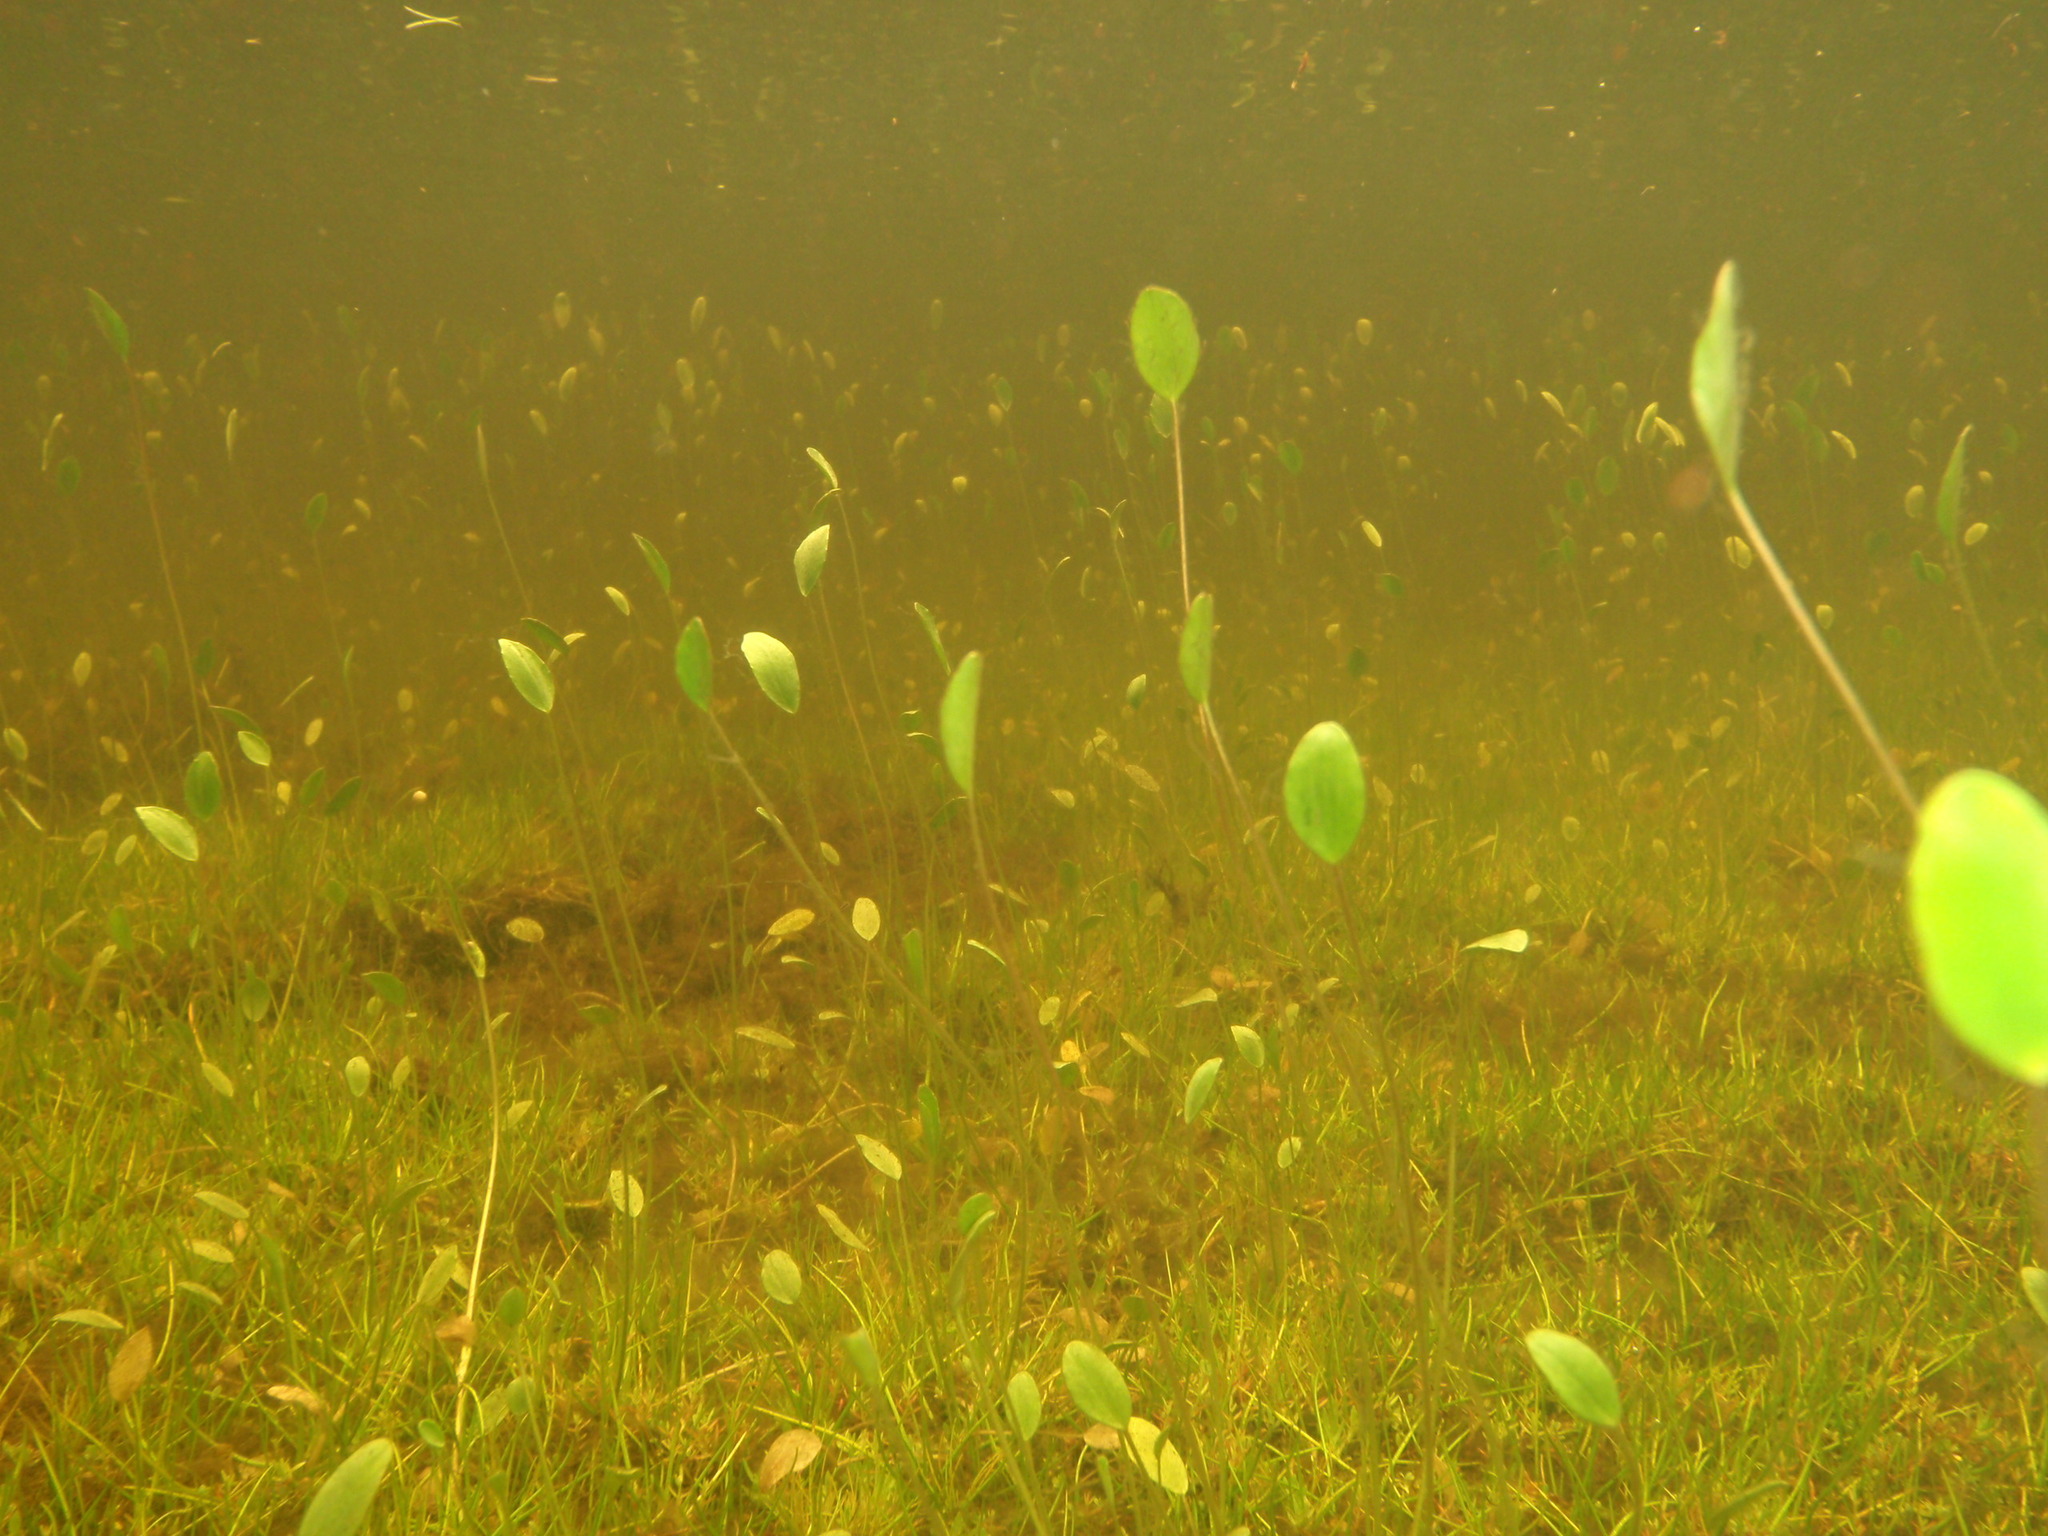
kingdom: Plantae
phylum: Tracheophyta
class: Magnoliopsida
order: Ranunculales
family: Ranunculaceae
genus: Ranunculus
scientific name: Ranunculus limoselloides
